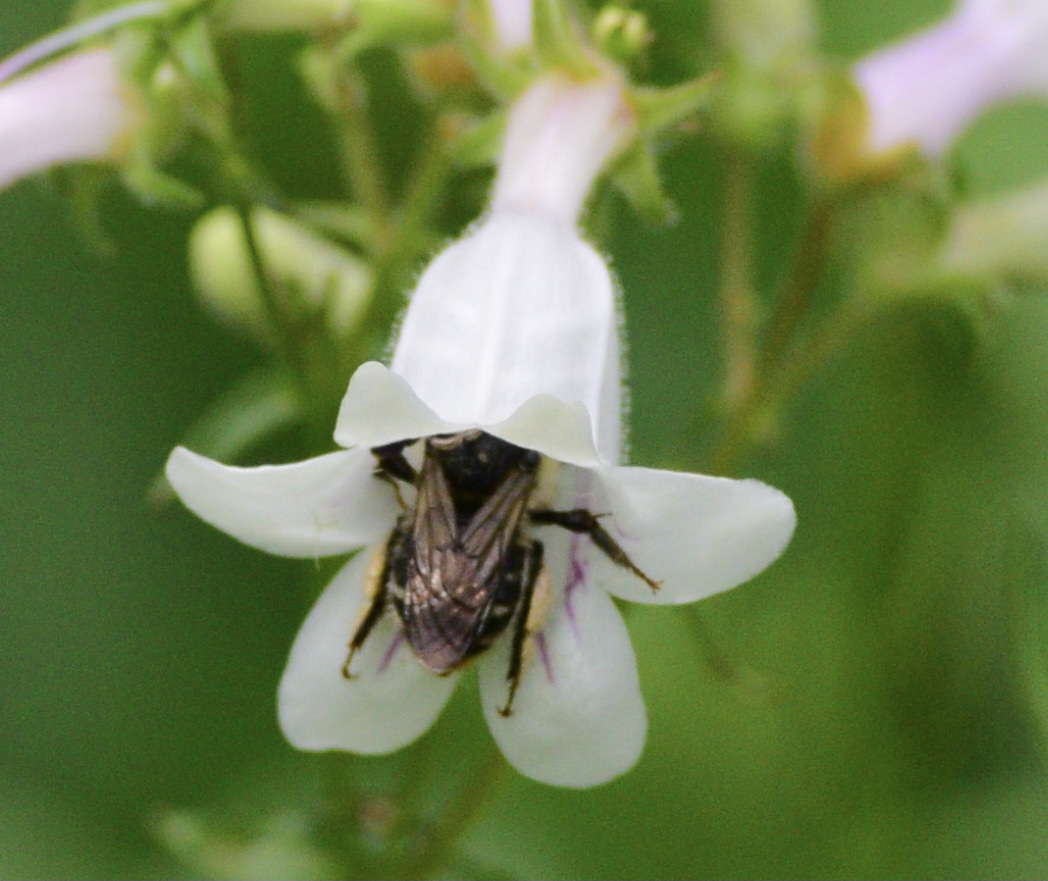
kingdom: Animalia
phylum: Arthropoda
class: Insecta
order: Hymenoptera
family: Apidae
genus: Anthophora
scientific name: Anthophora terminalis
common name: Orange-tipped wood-digger bee
